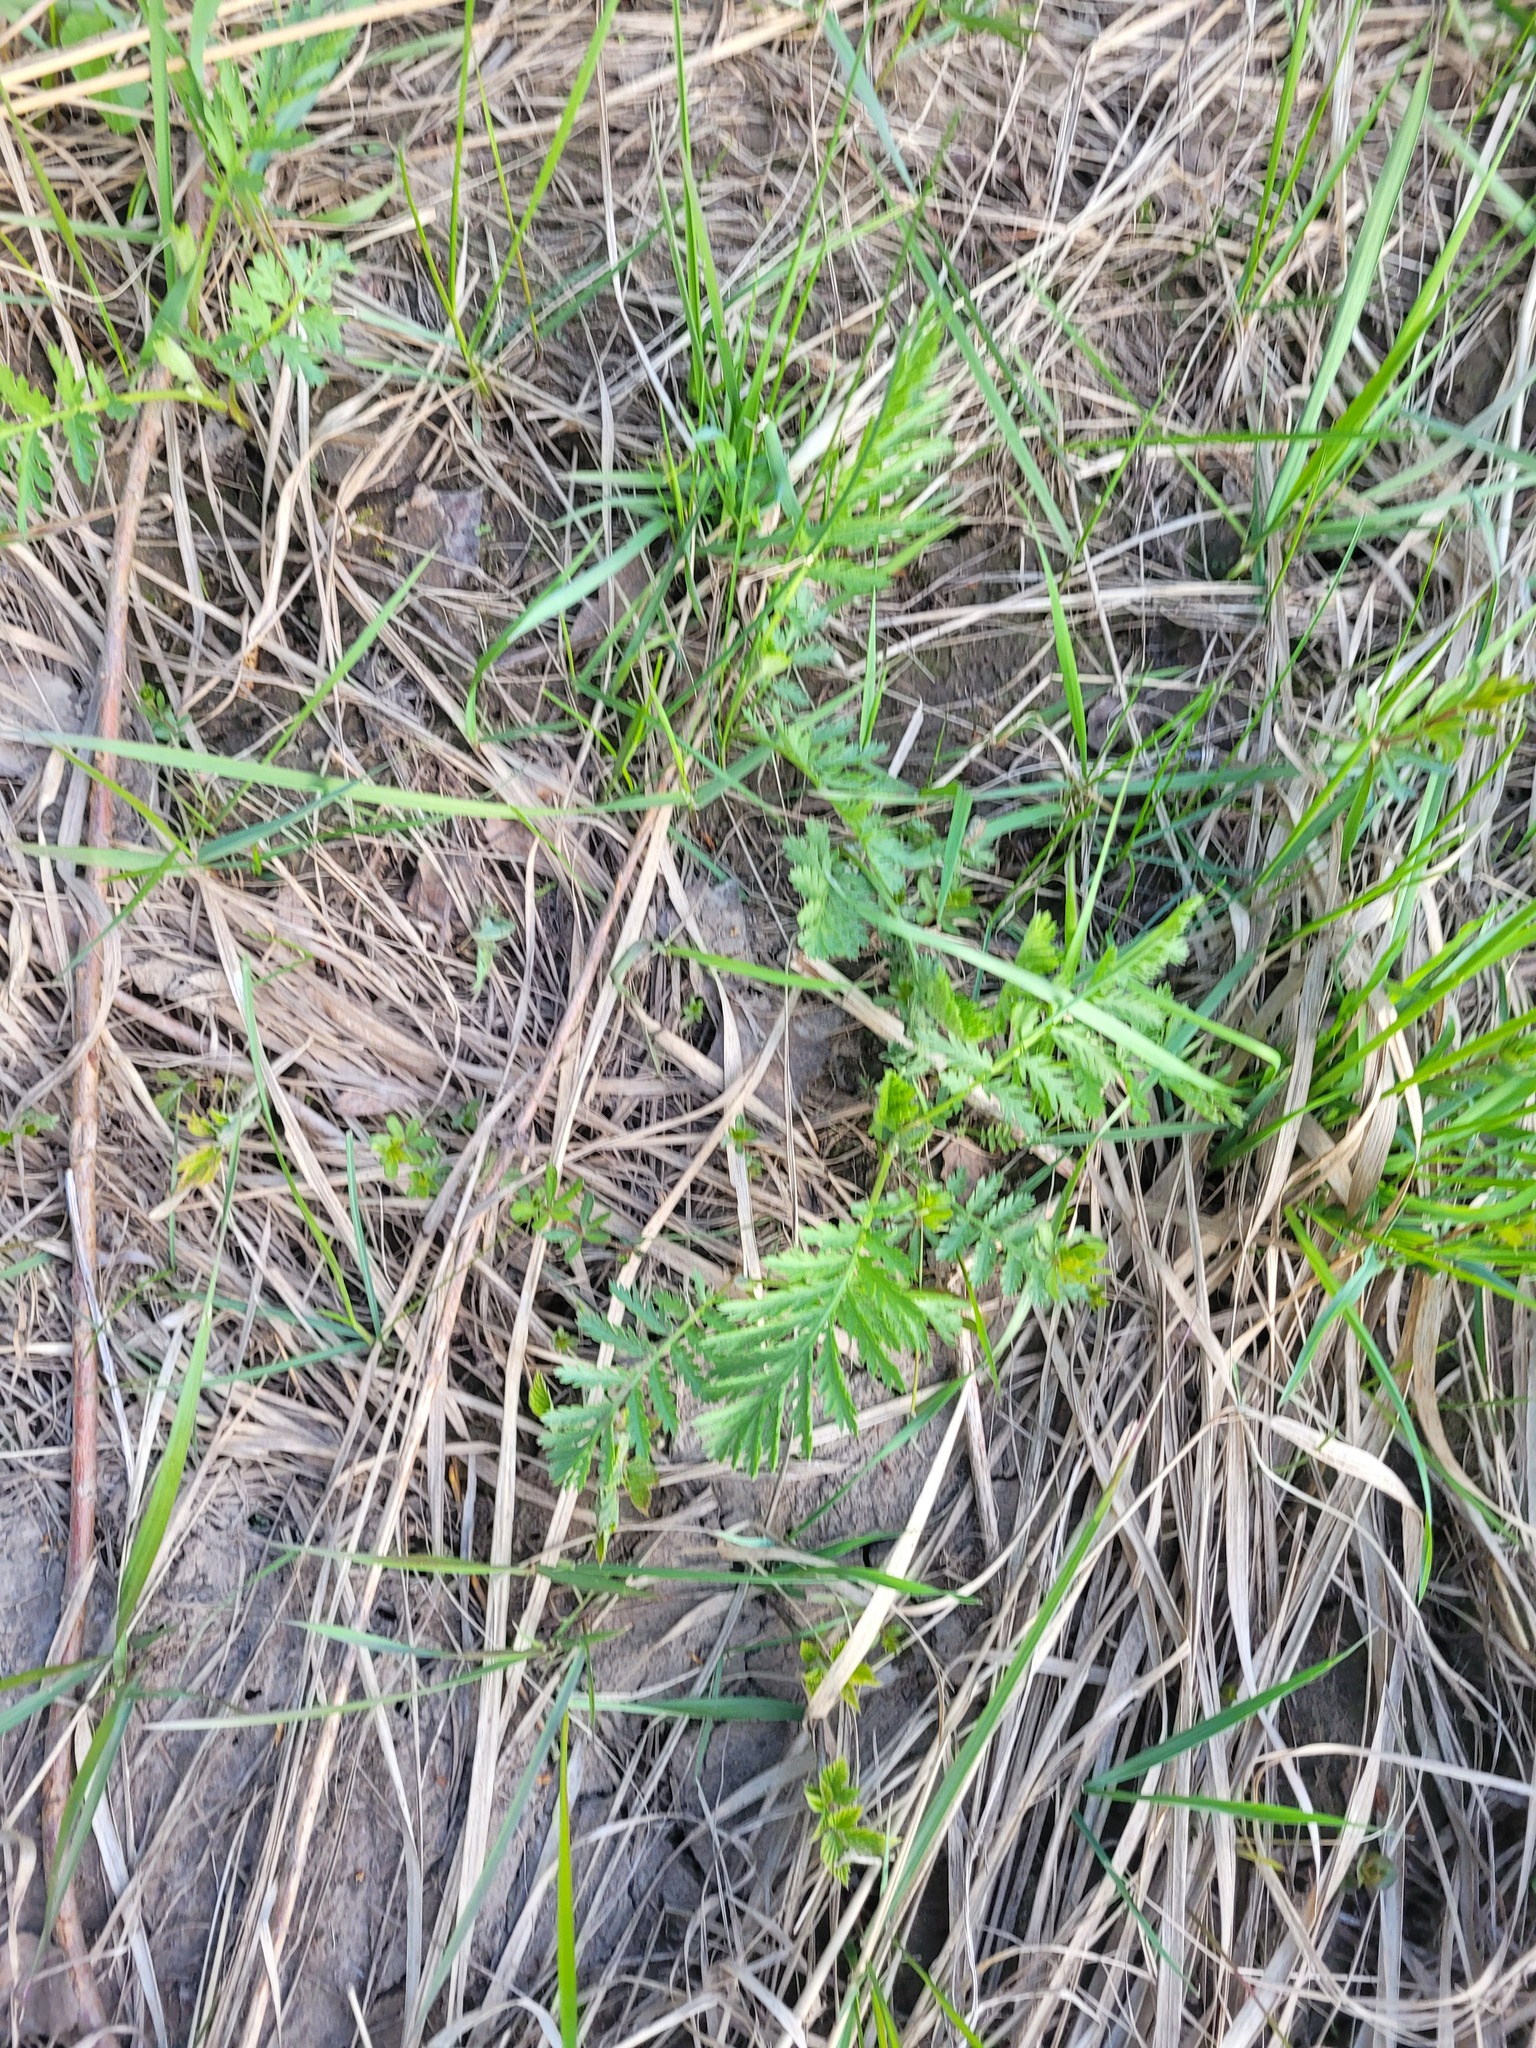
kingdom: Plantae
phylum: Tracheophyta
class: Magnoliopsida
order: Asterales
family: Asteraceae
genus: Tanacetum
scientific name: Tanacetum vulgare
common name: Common tansy
